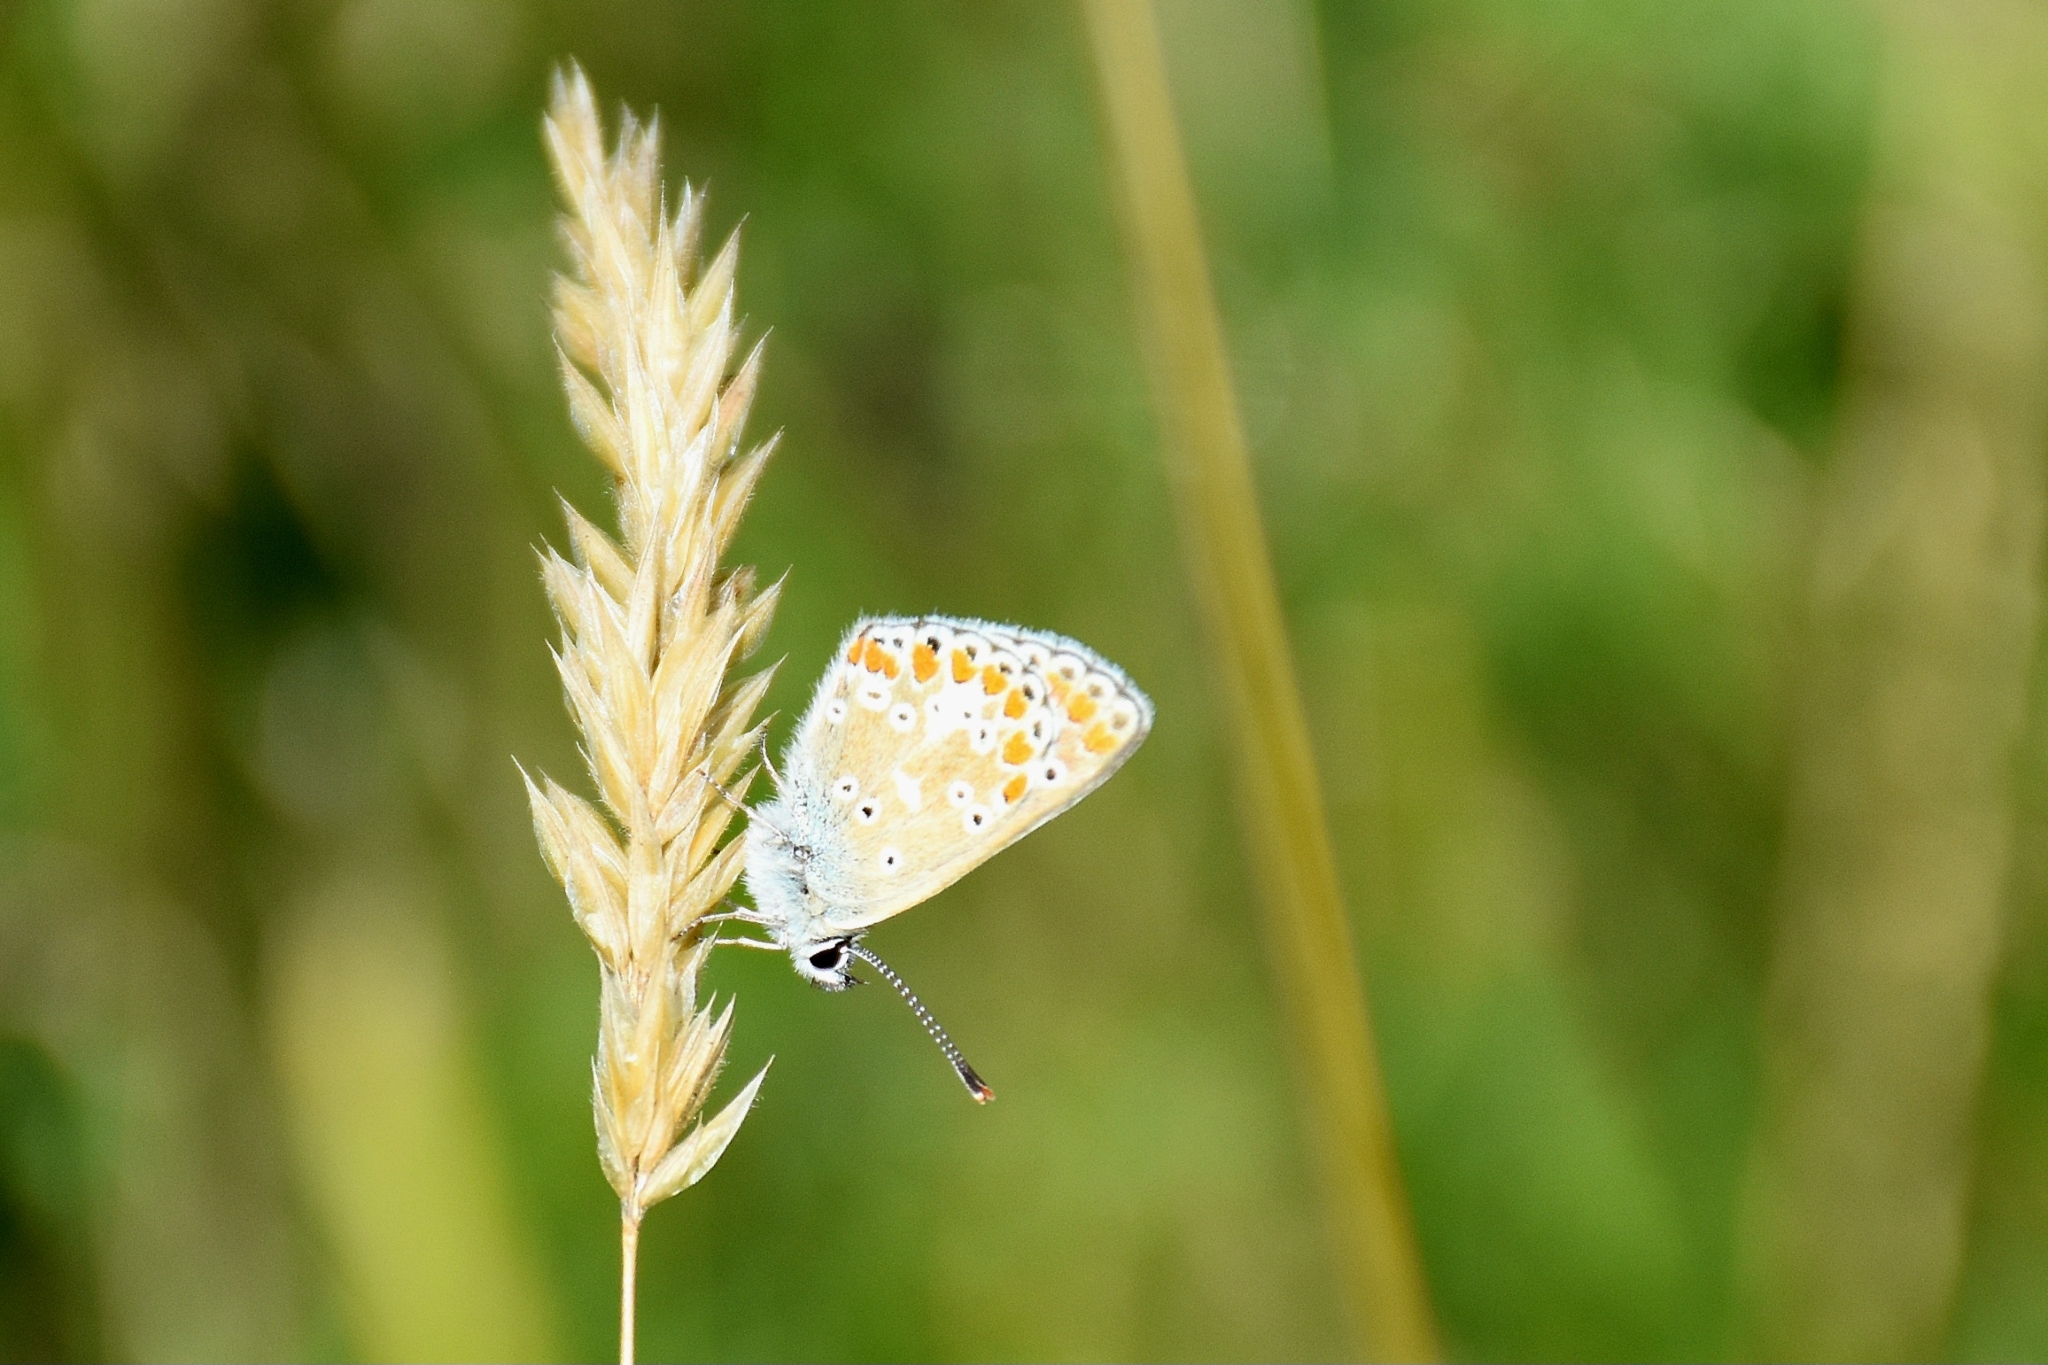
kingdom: Animalia
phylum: Arthropoda
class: Insecta
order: Lepidoptera
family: Lycaenidae
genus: Polyommatus
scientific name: Polyommatus icarus
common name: Common blue
